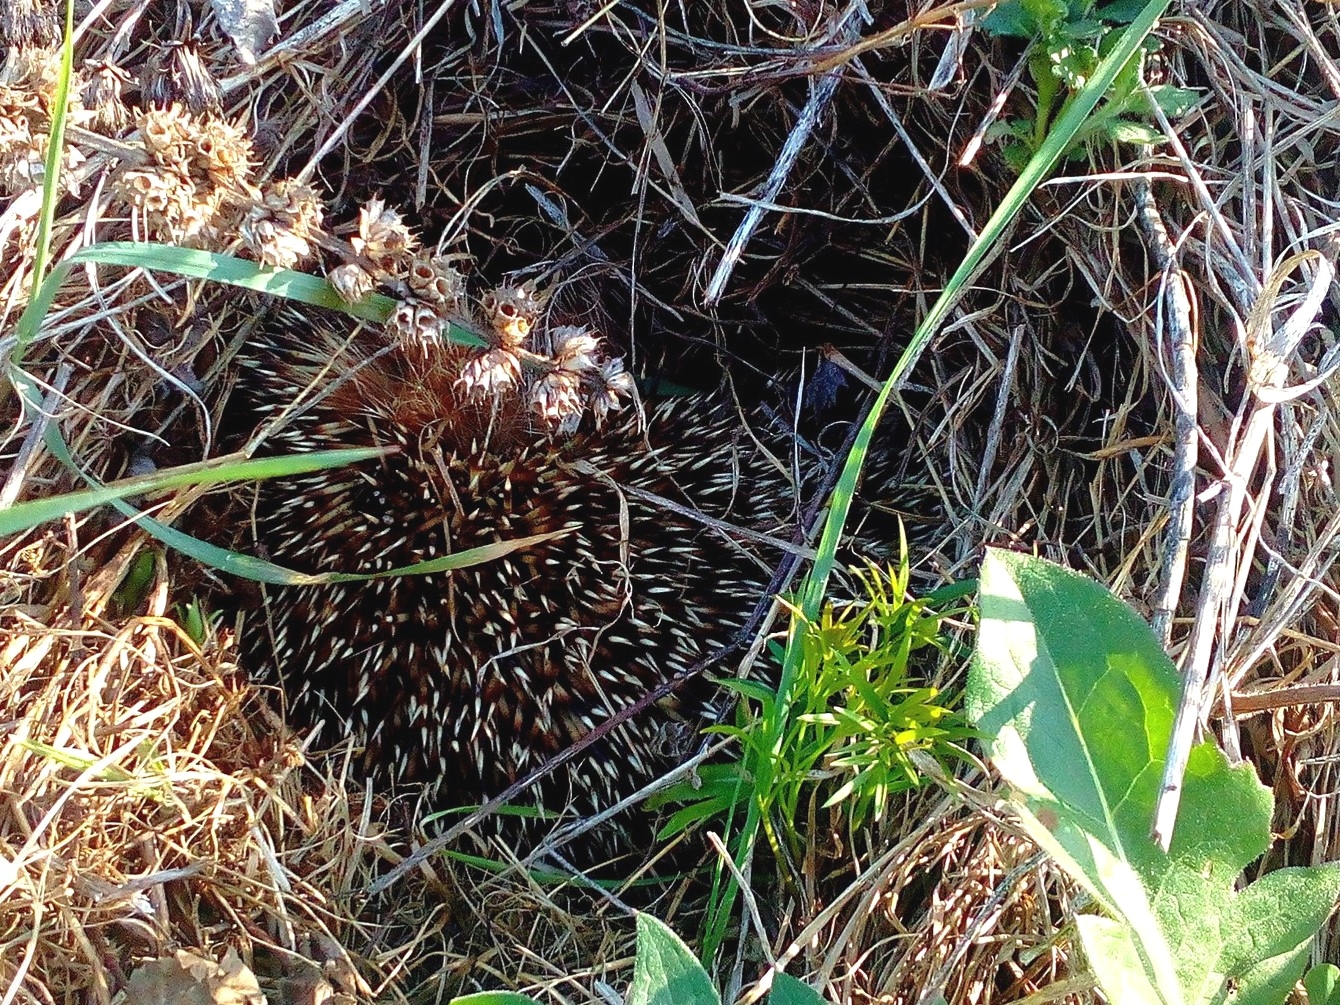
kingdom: Animalia
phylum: Chordata
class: Mammalia
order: Erinaceomorpha
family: Erinaceidae
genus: Erinaceus
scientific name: Erinaceus roumanicus
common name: Northern white-breasted hedgehog
